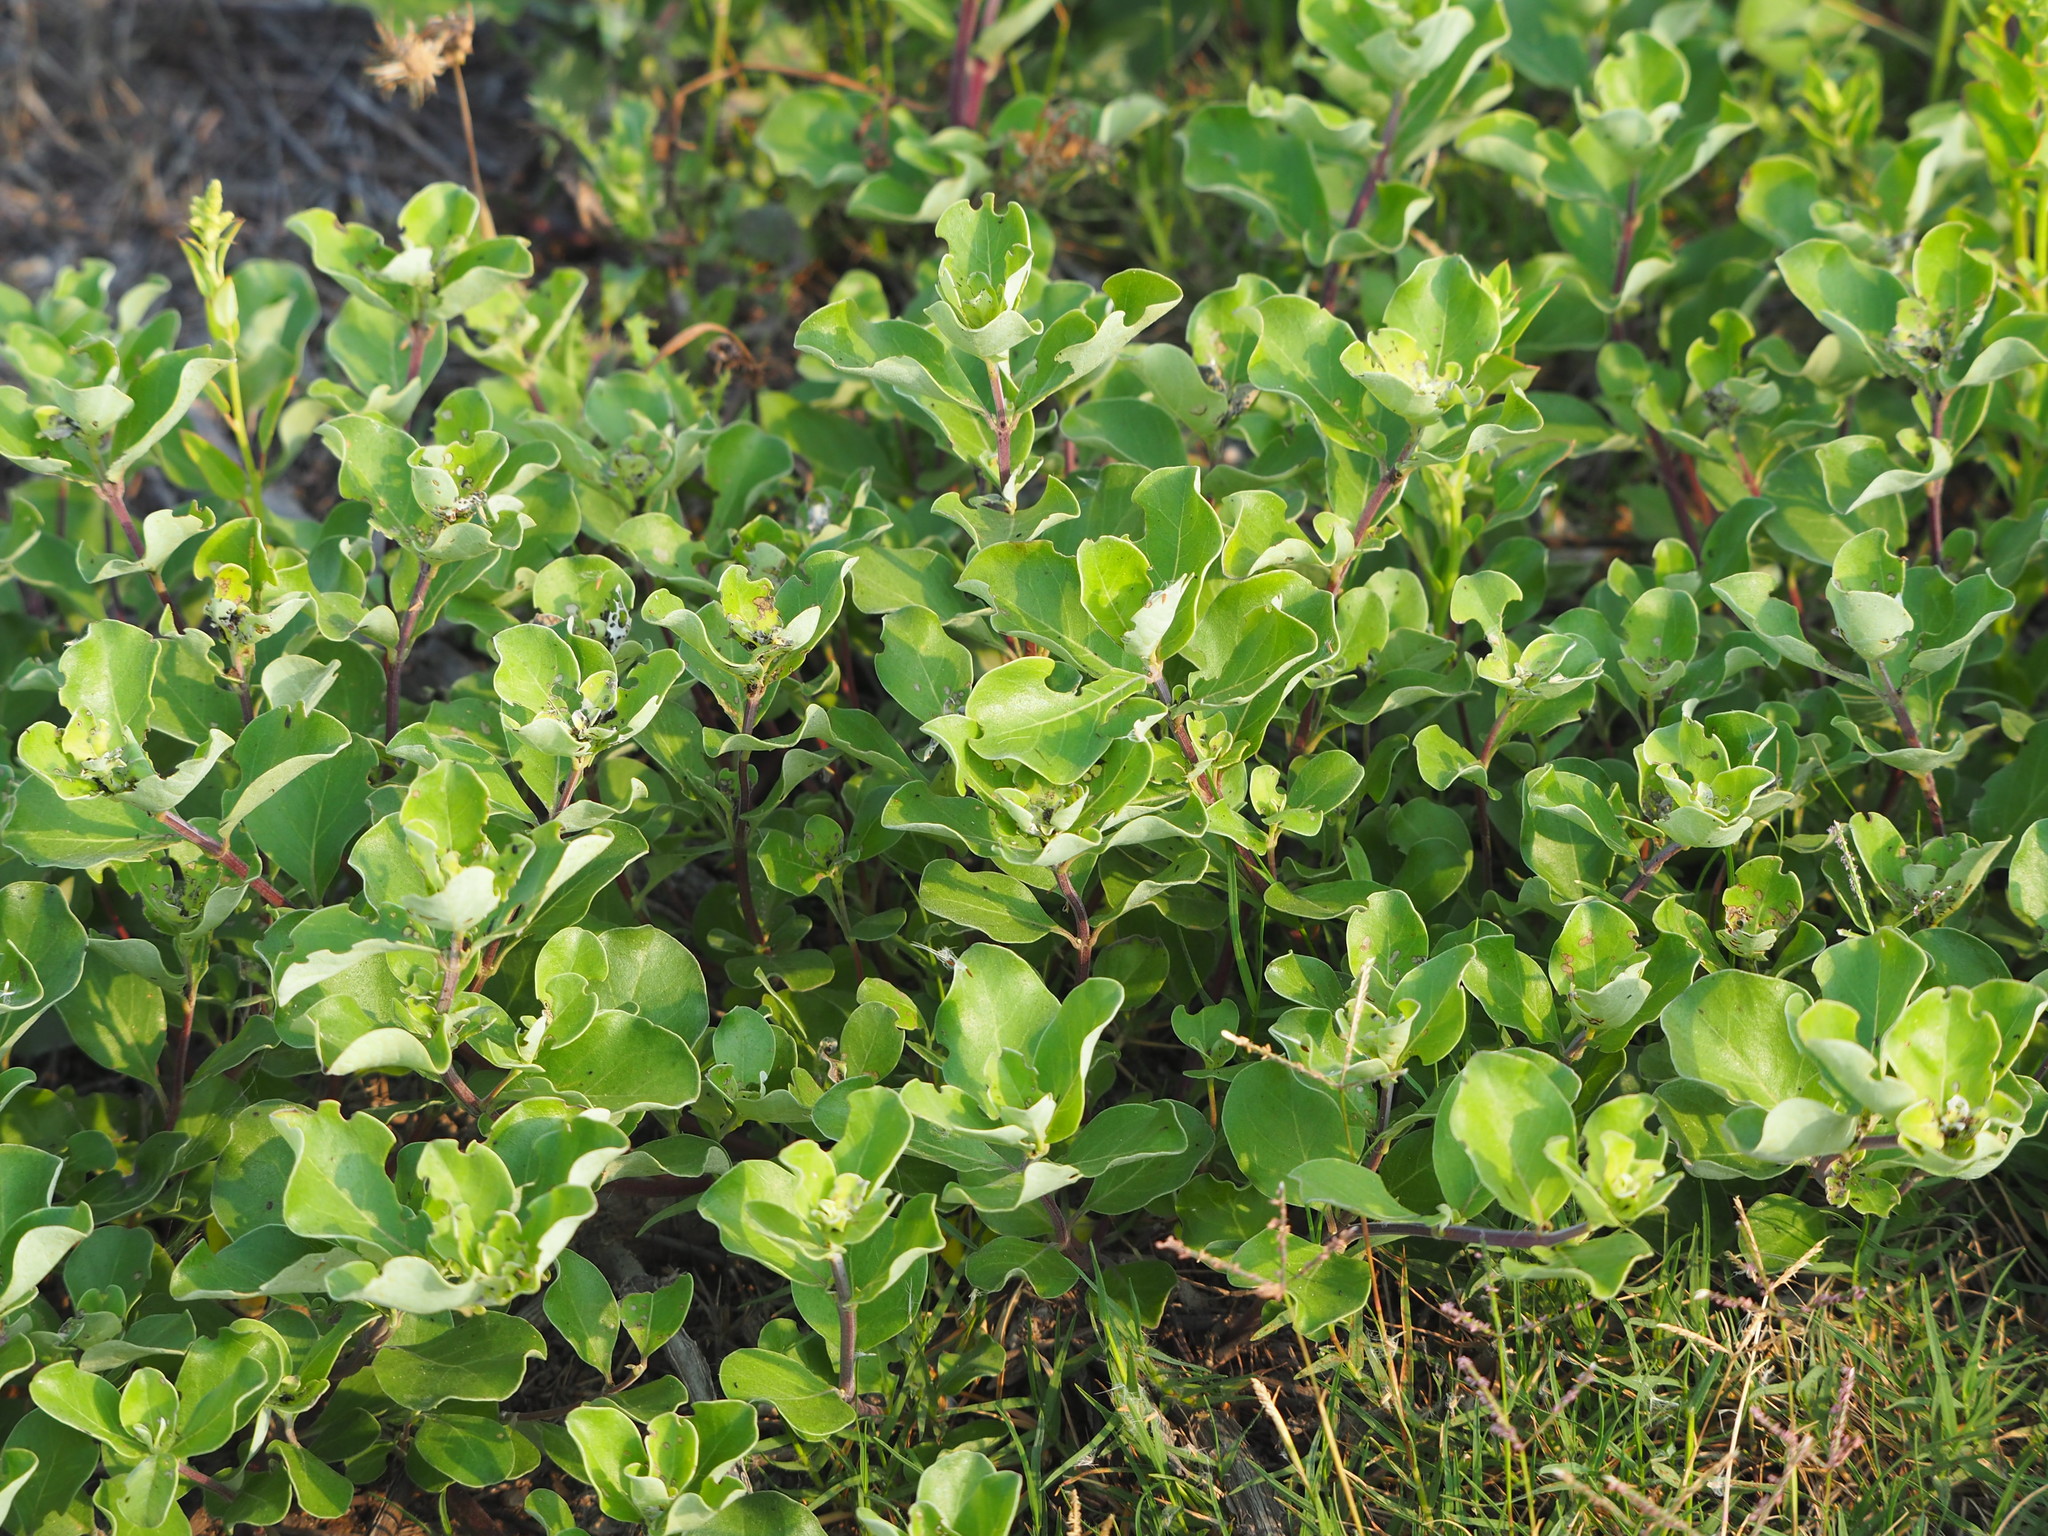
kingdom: Plantae
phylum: Tracheophyta
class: Magnoliopsida
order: Lamiales
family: Lamiaceae
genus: Vitex
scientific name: Vitex rotundifolia
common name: Beach vitex
